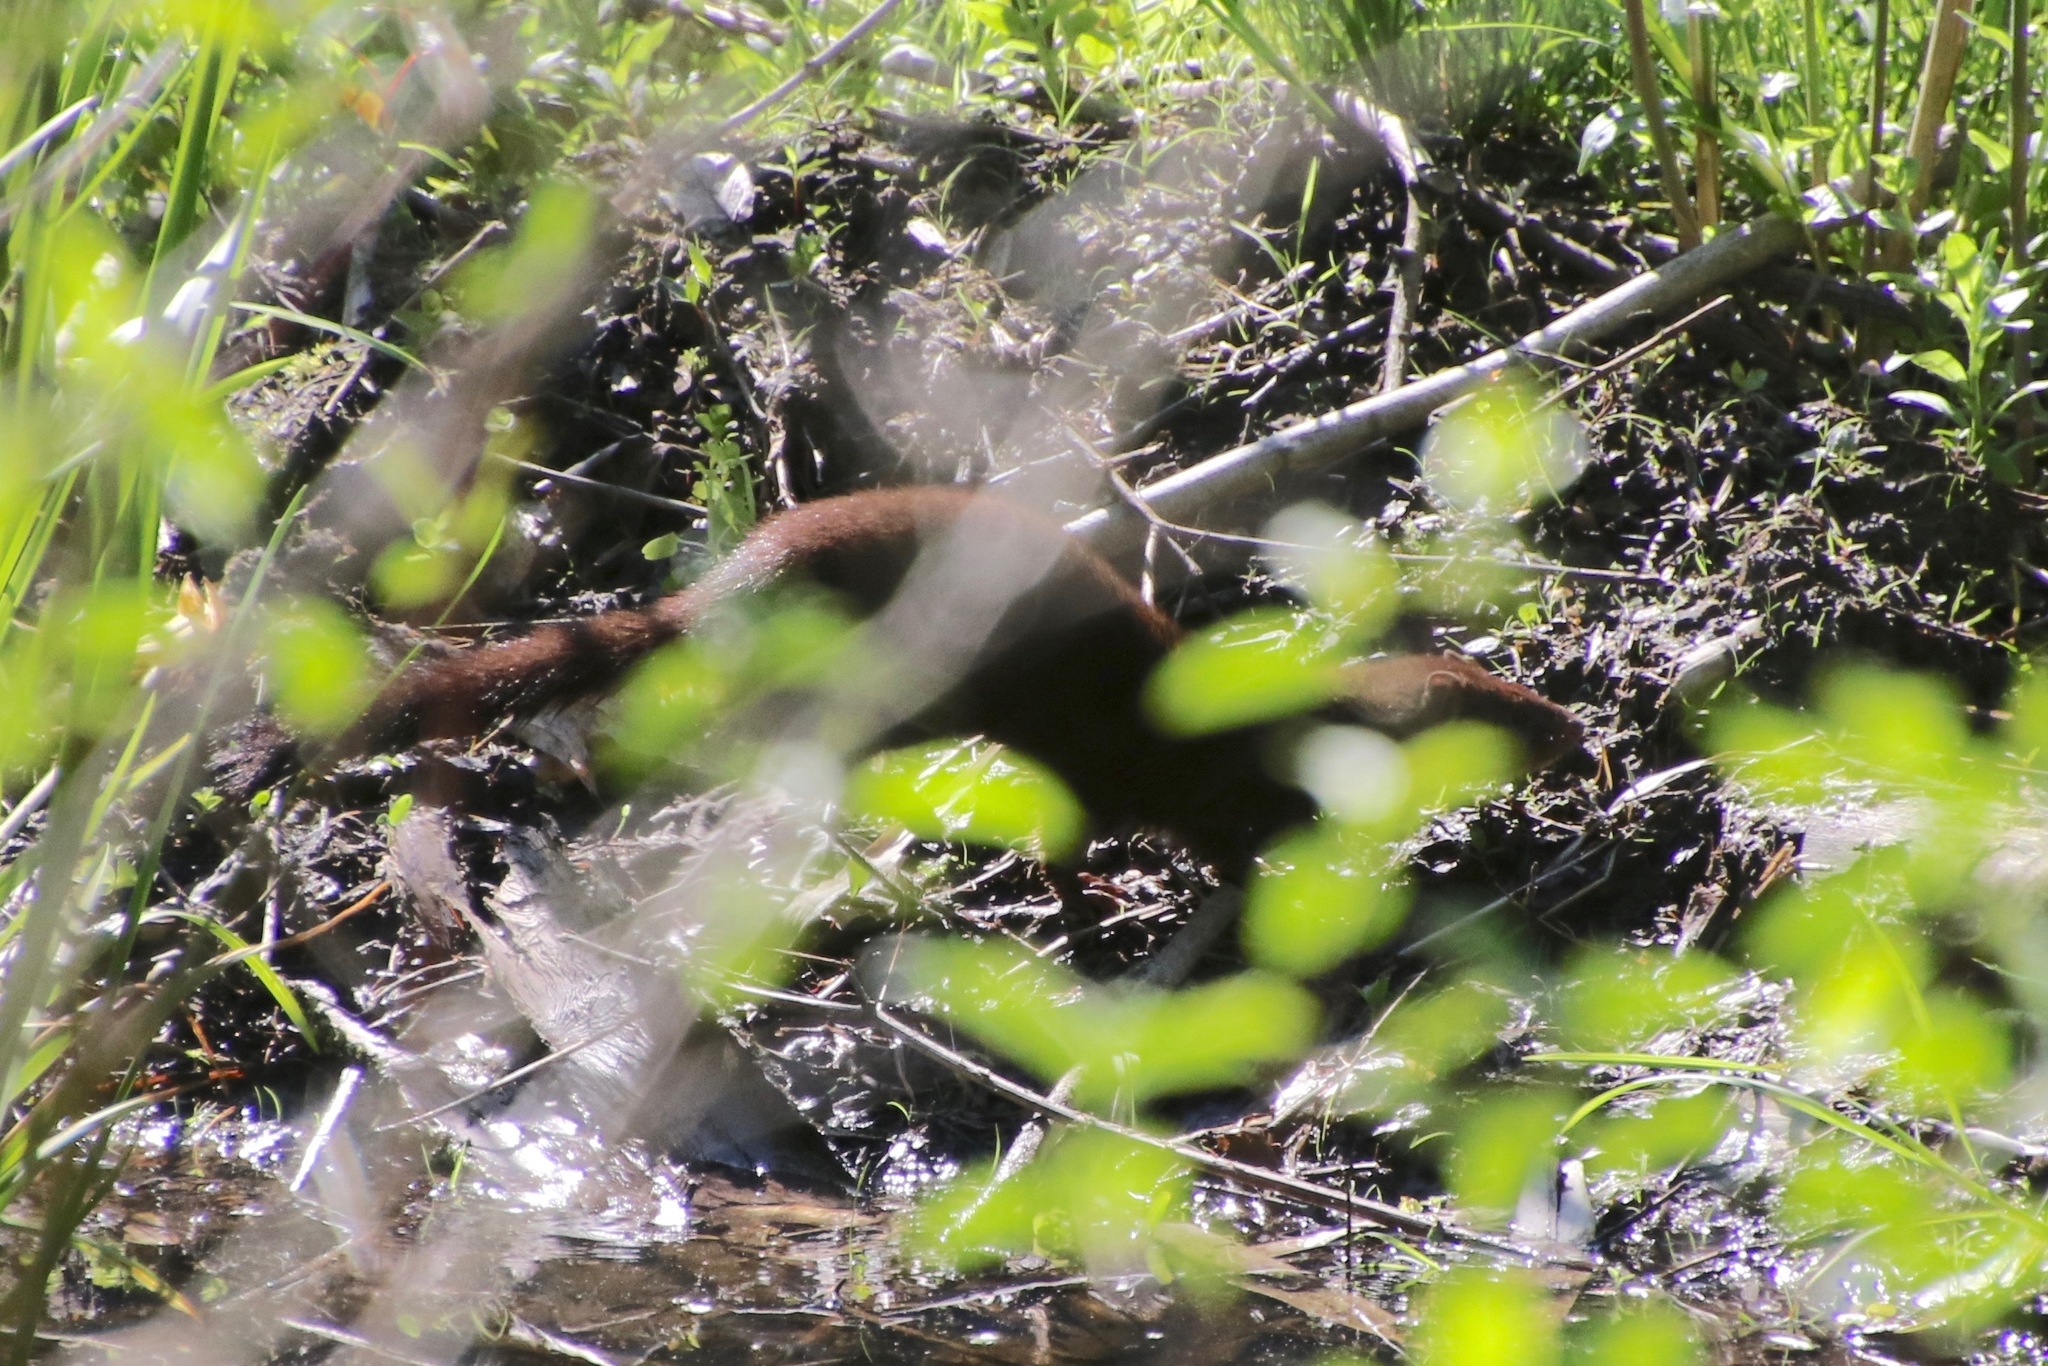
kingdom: Animalia
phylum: Chordata
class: Mammalia
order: Carnivora
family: Mustelidae
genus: Mustela
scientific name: Mustela
